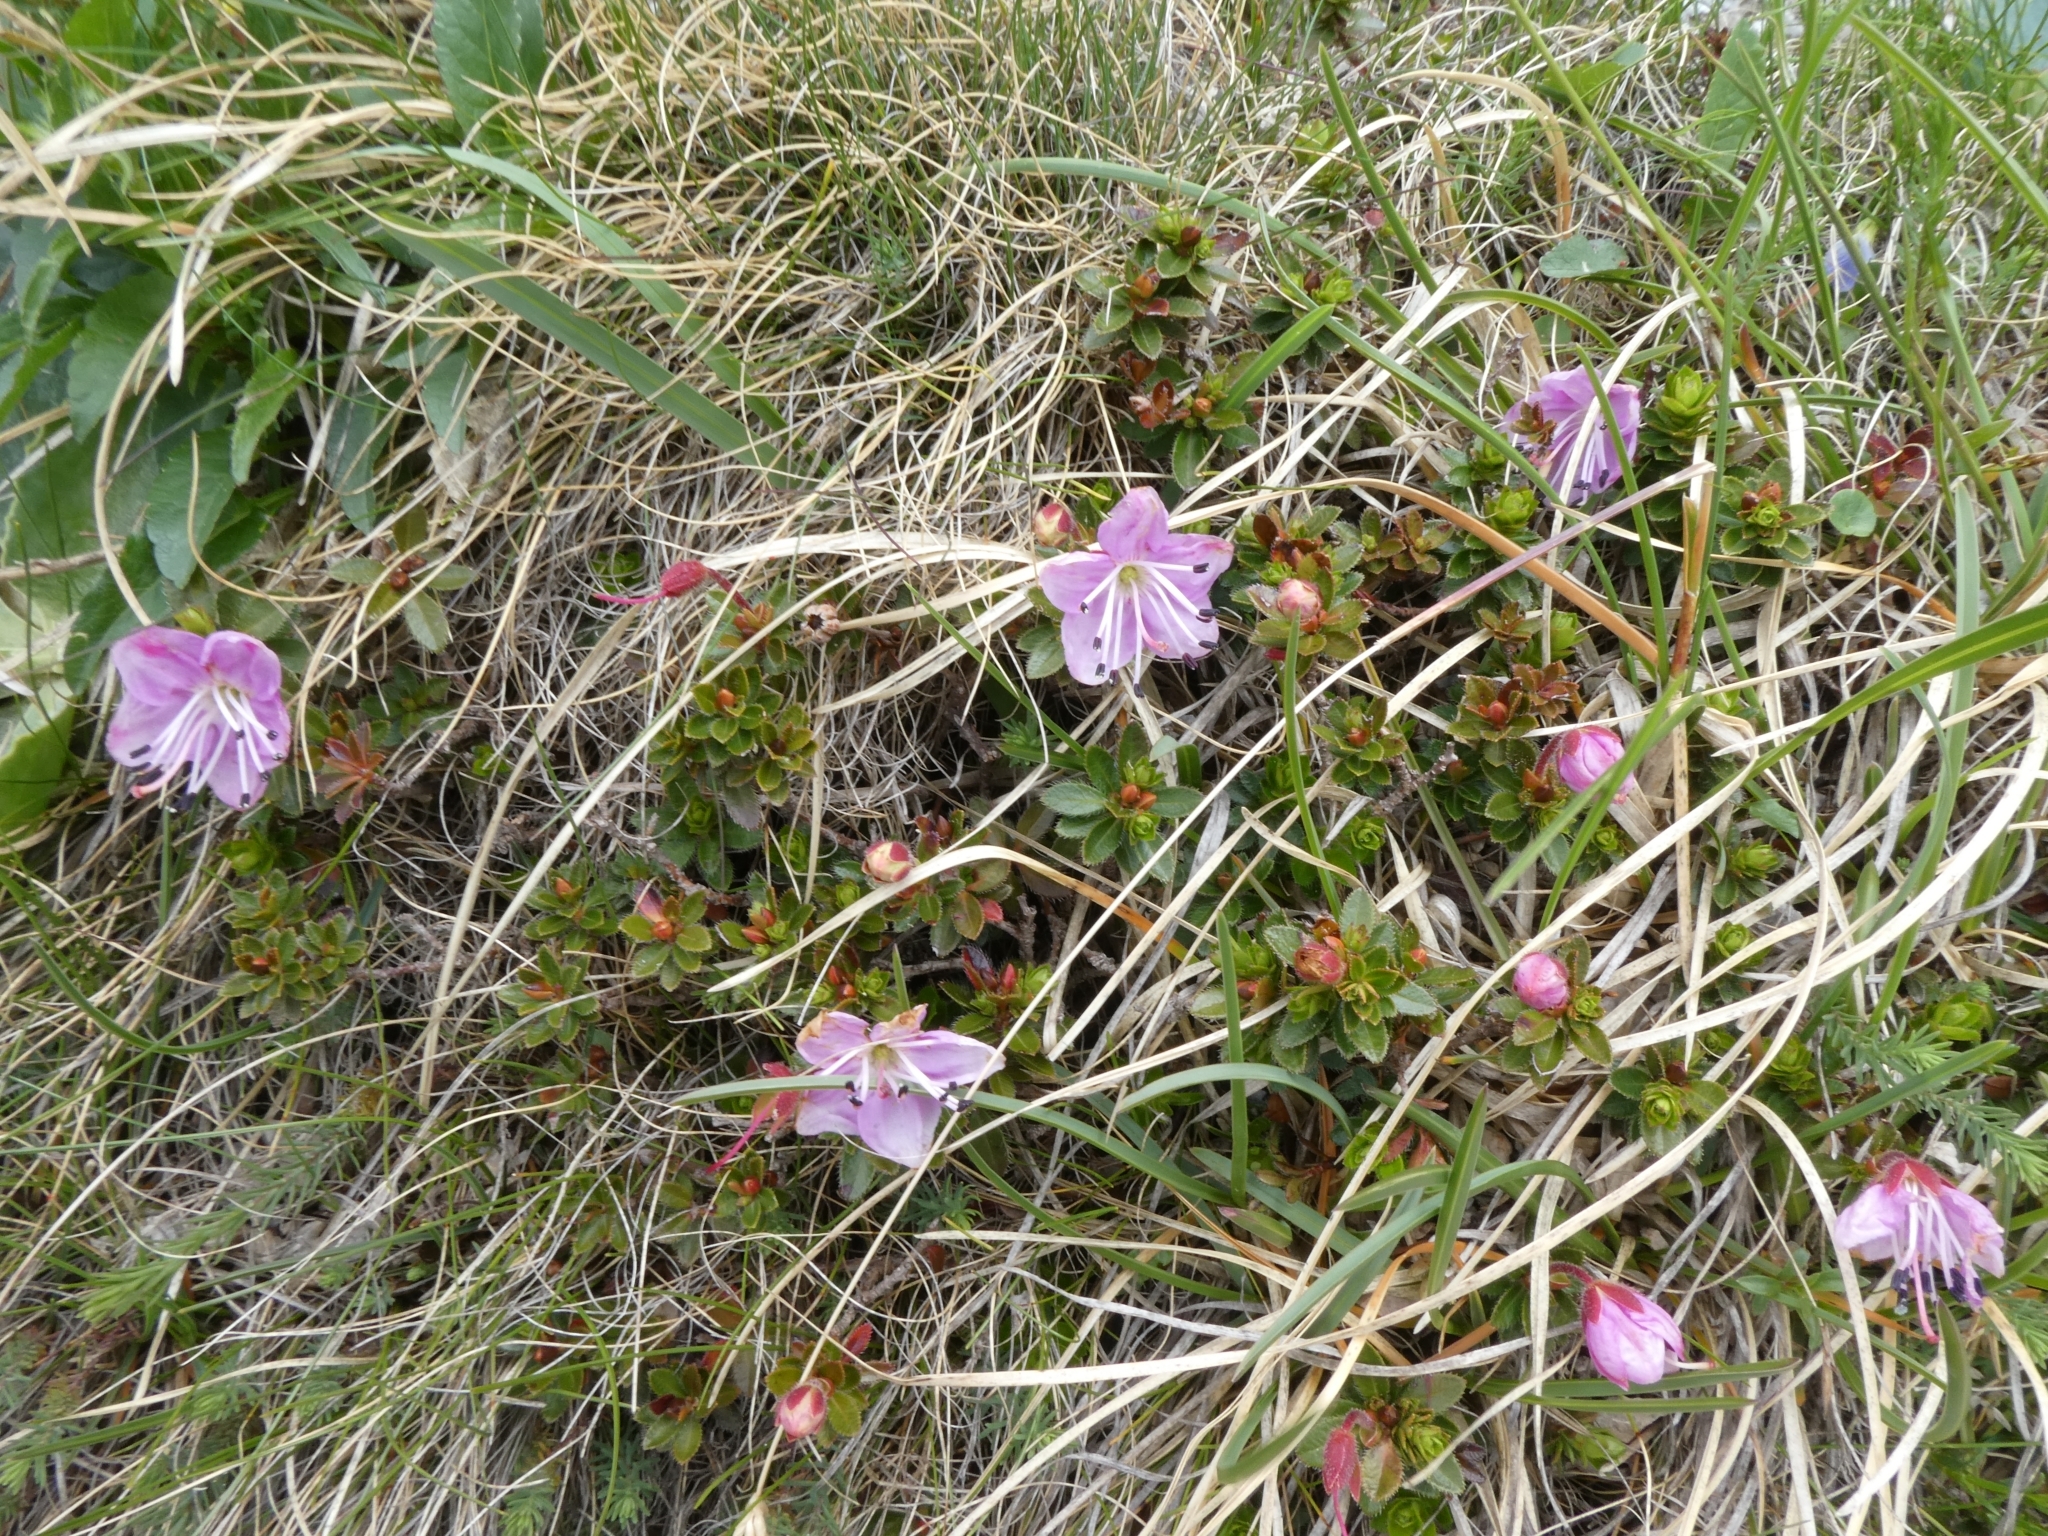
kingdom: Plantae
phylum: Tracheophyta
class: Magnoliopsida
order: Ericales
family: Ericaceae
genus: Rhodothamnus
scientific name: Rhodothamnus chamaecistus
